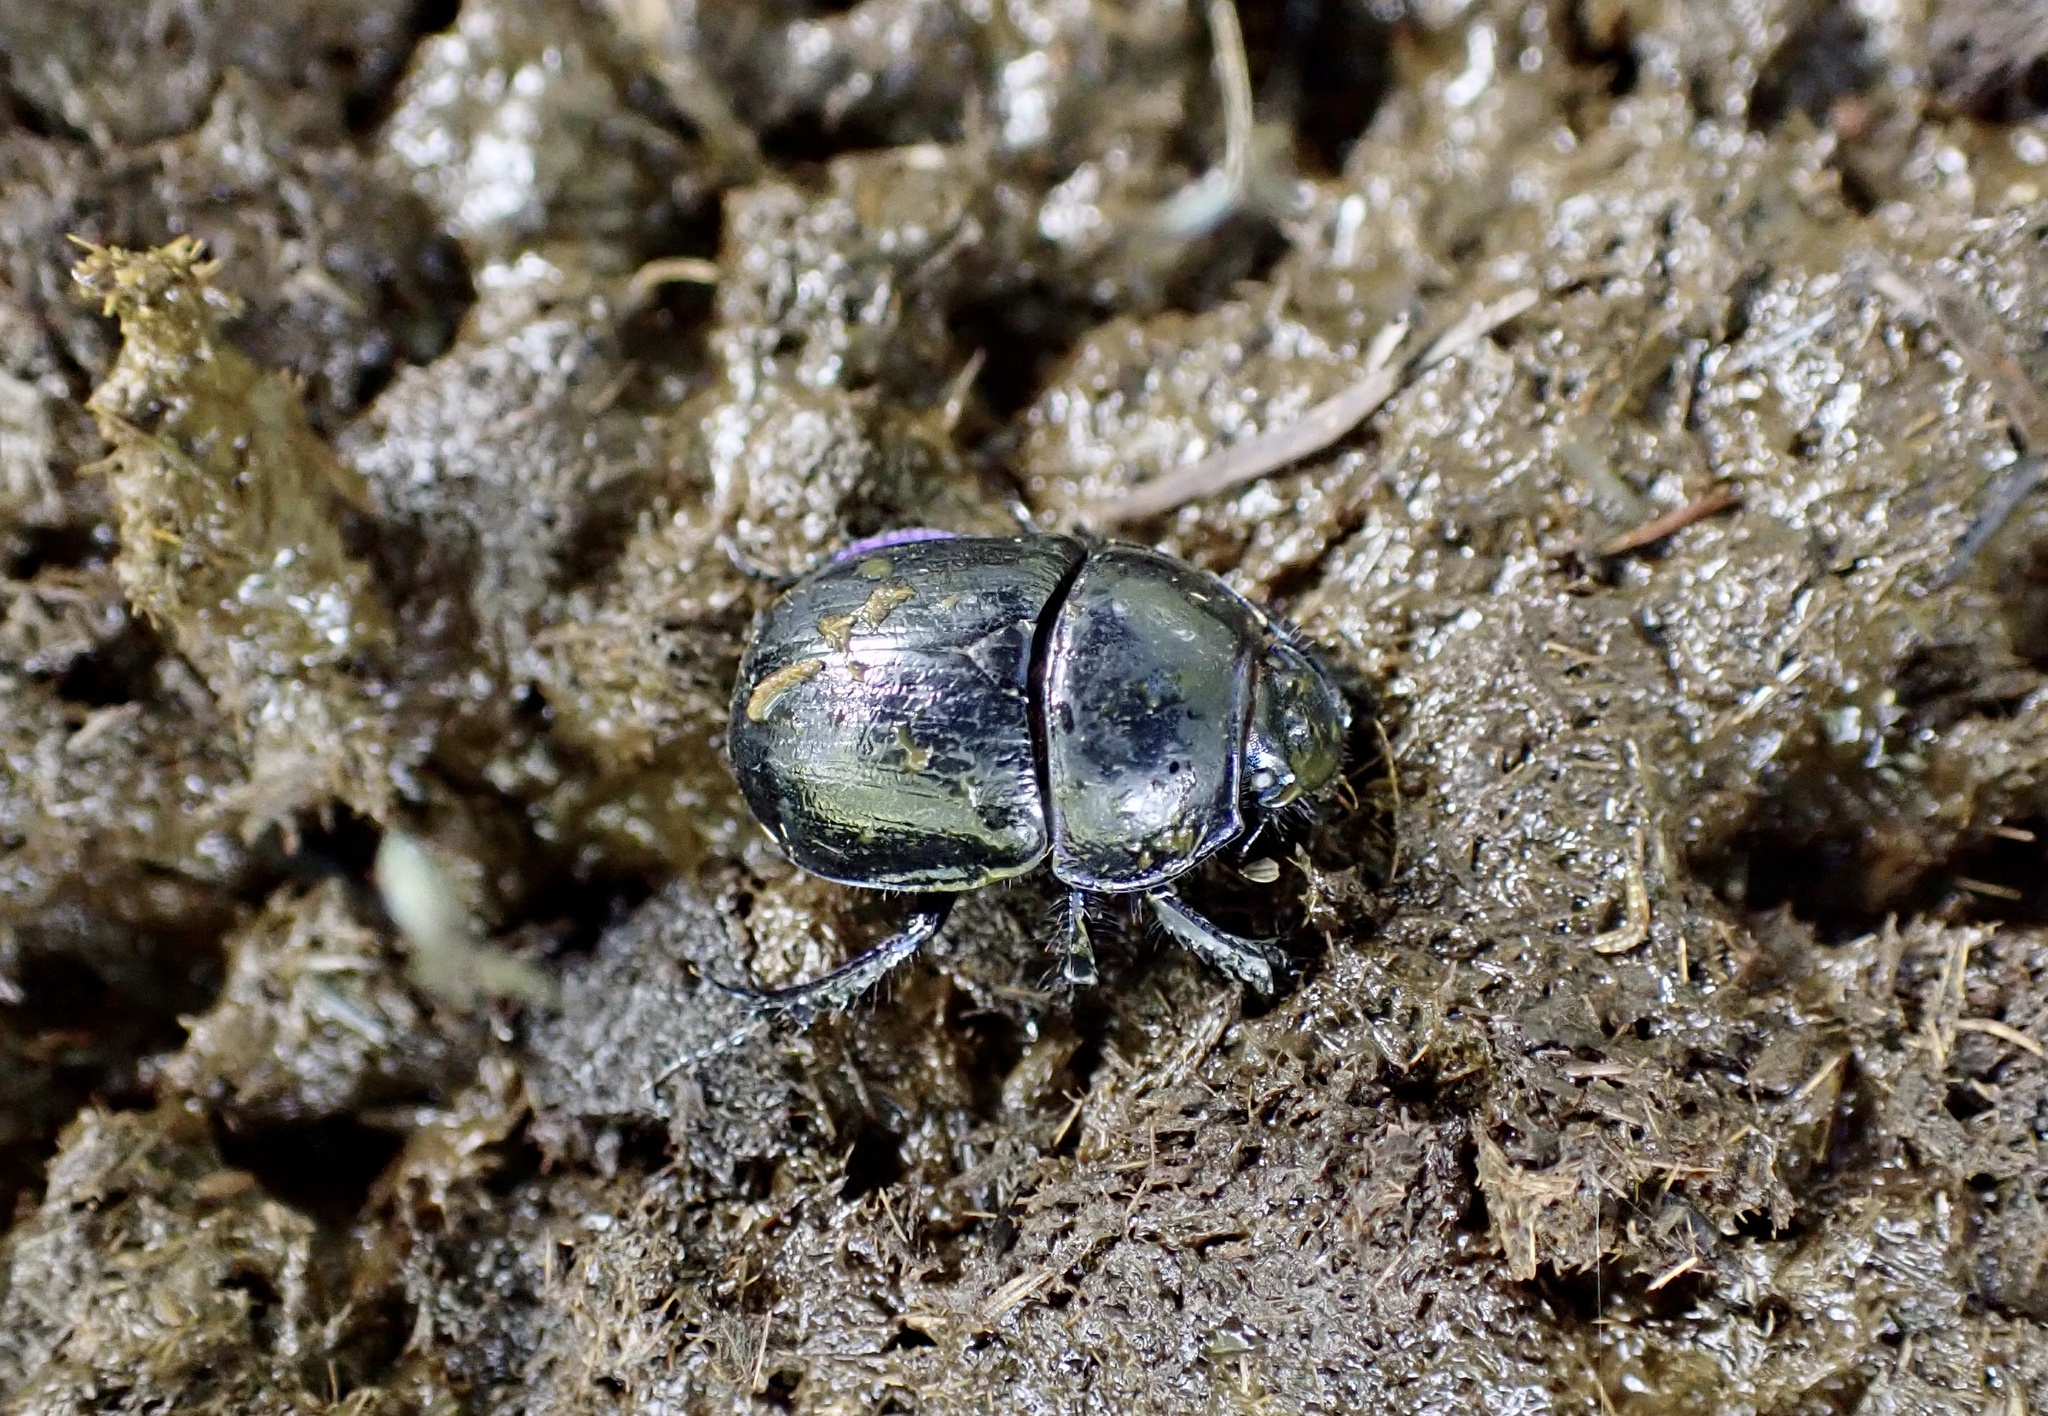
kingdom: Animalia
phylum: Arthropoda
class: Insecta
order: Coleoptera
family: Geotrupidae
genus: Anoplotrupes
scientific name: Anoplotrupes stercorosus
